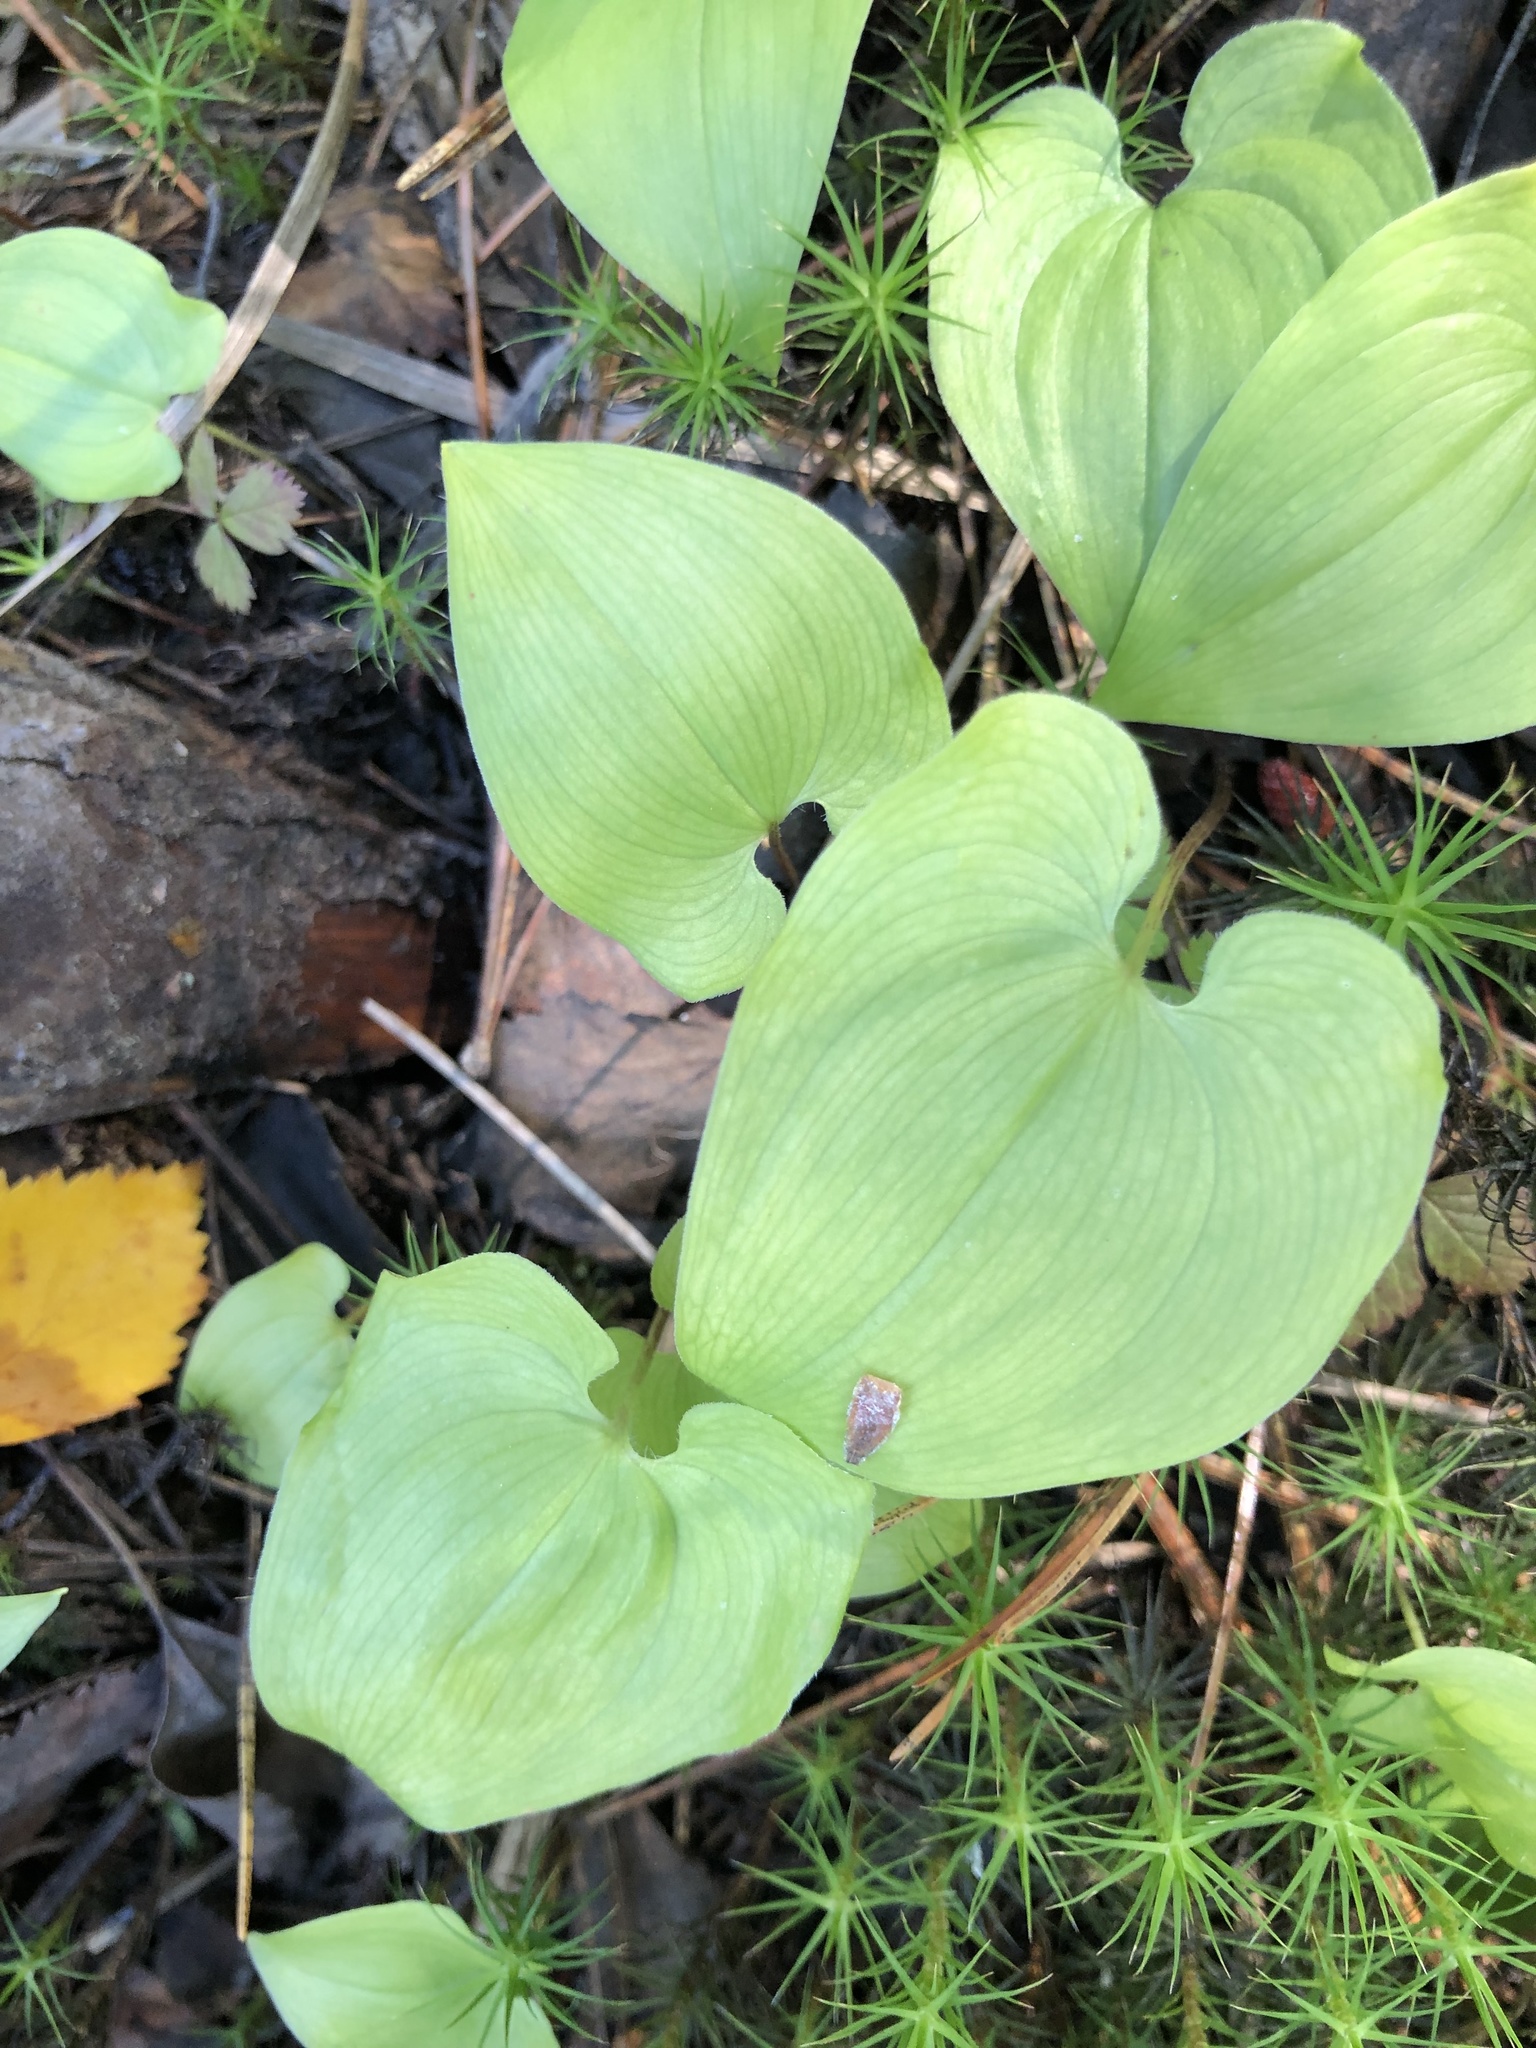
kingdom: Plantae
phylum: Tracheophyta
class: Liliopsida
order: Asparagales
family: Asparagaceae
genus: Maianthemum
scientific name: Maianthemum bifolium
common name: May lily
